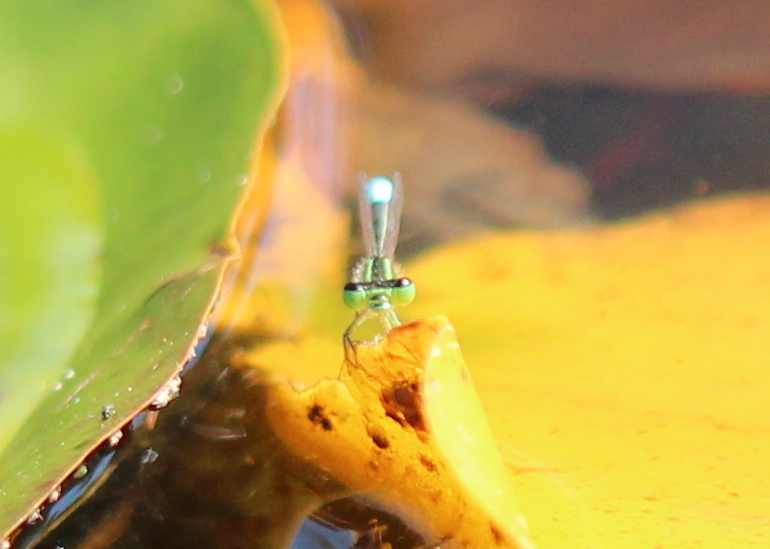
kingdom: Animalia
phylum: Arthropoda
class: Insecta
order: Odonata
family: Coenagrionidae
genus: Ischnura
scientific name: Ischnura verticalis
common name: Eastern forktail
